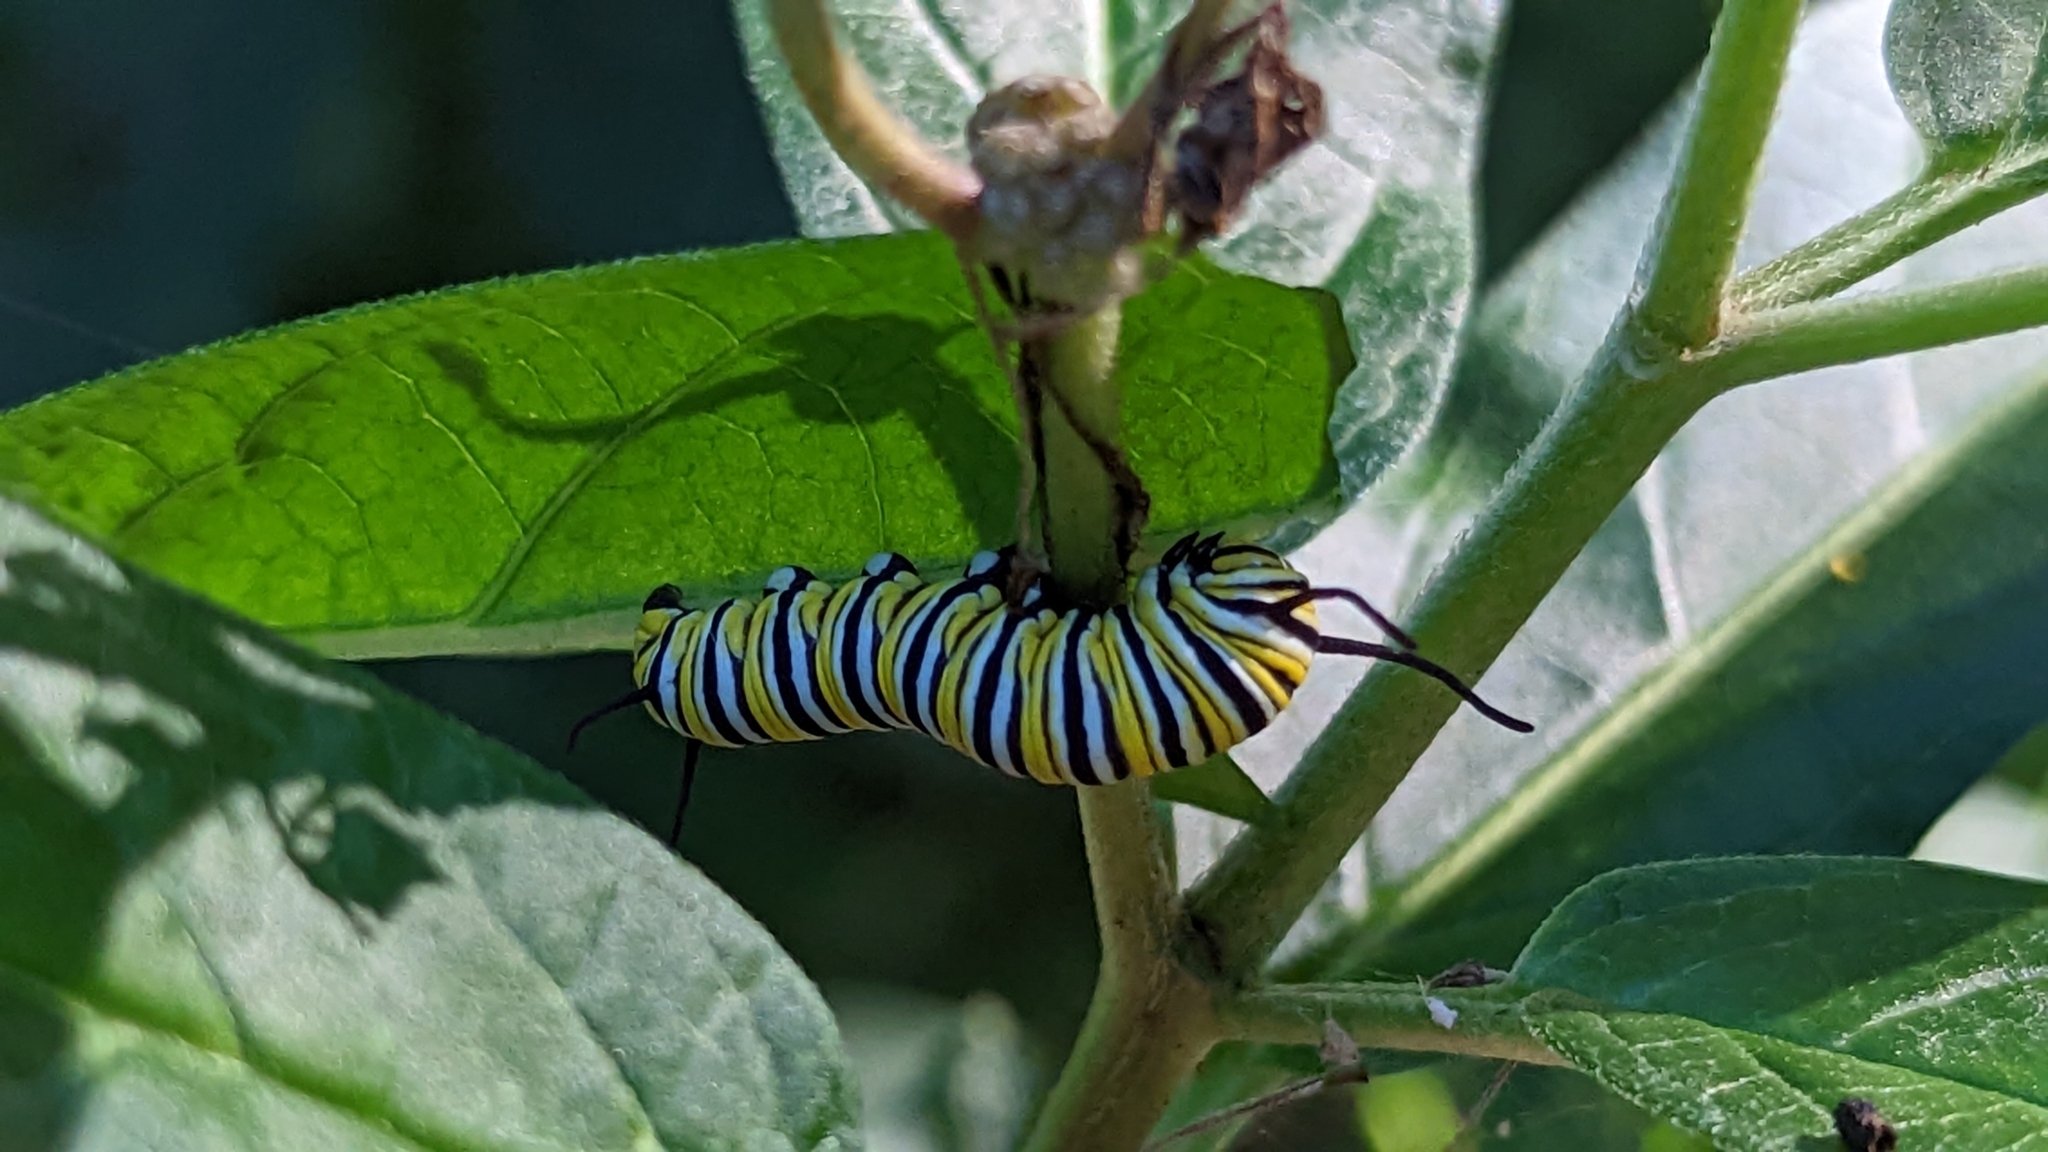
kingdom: Animalia
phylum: Arthropoda
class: Insecta
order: Lepidoptera
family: Nymphalidae
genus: Danaus
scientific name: Danaus plexippus
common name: Monarch
